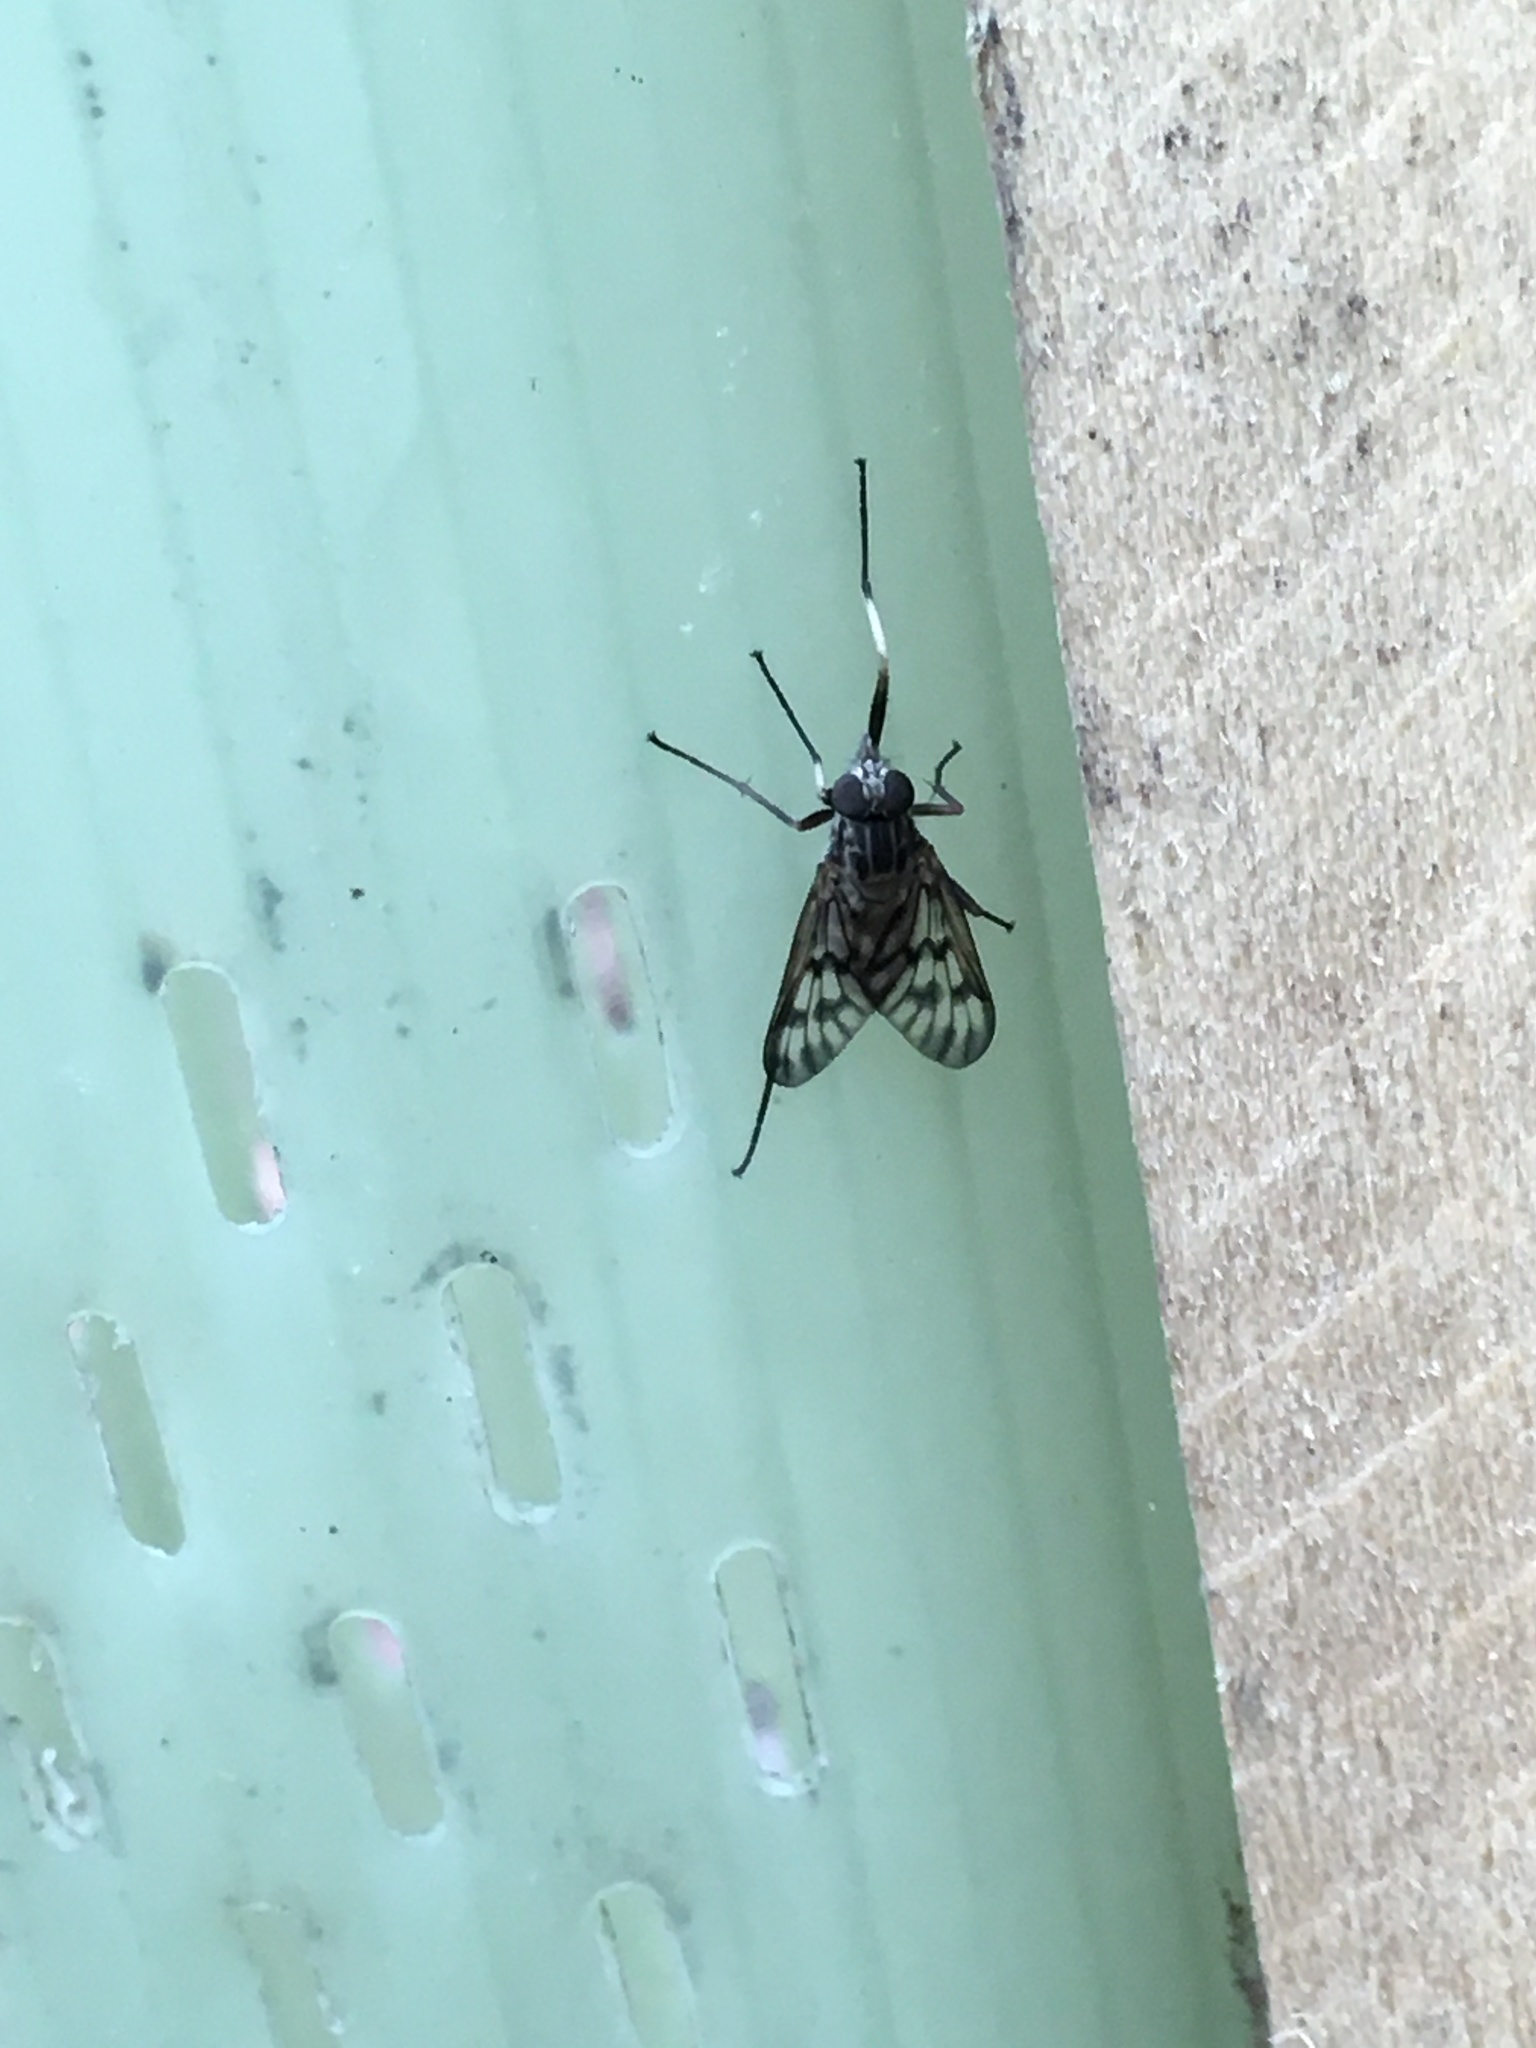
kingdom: Animalia
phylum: Arthropoda
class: Insecta
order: Diptera
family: Rhagionidae
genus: Rhagio
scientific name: Rhagio mystaceus
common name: Common snipe fly
